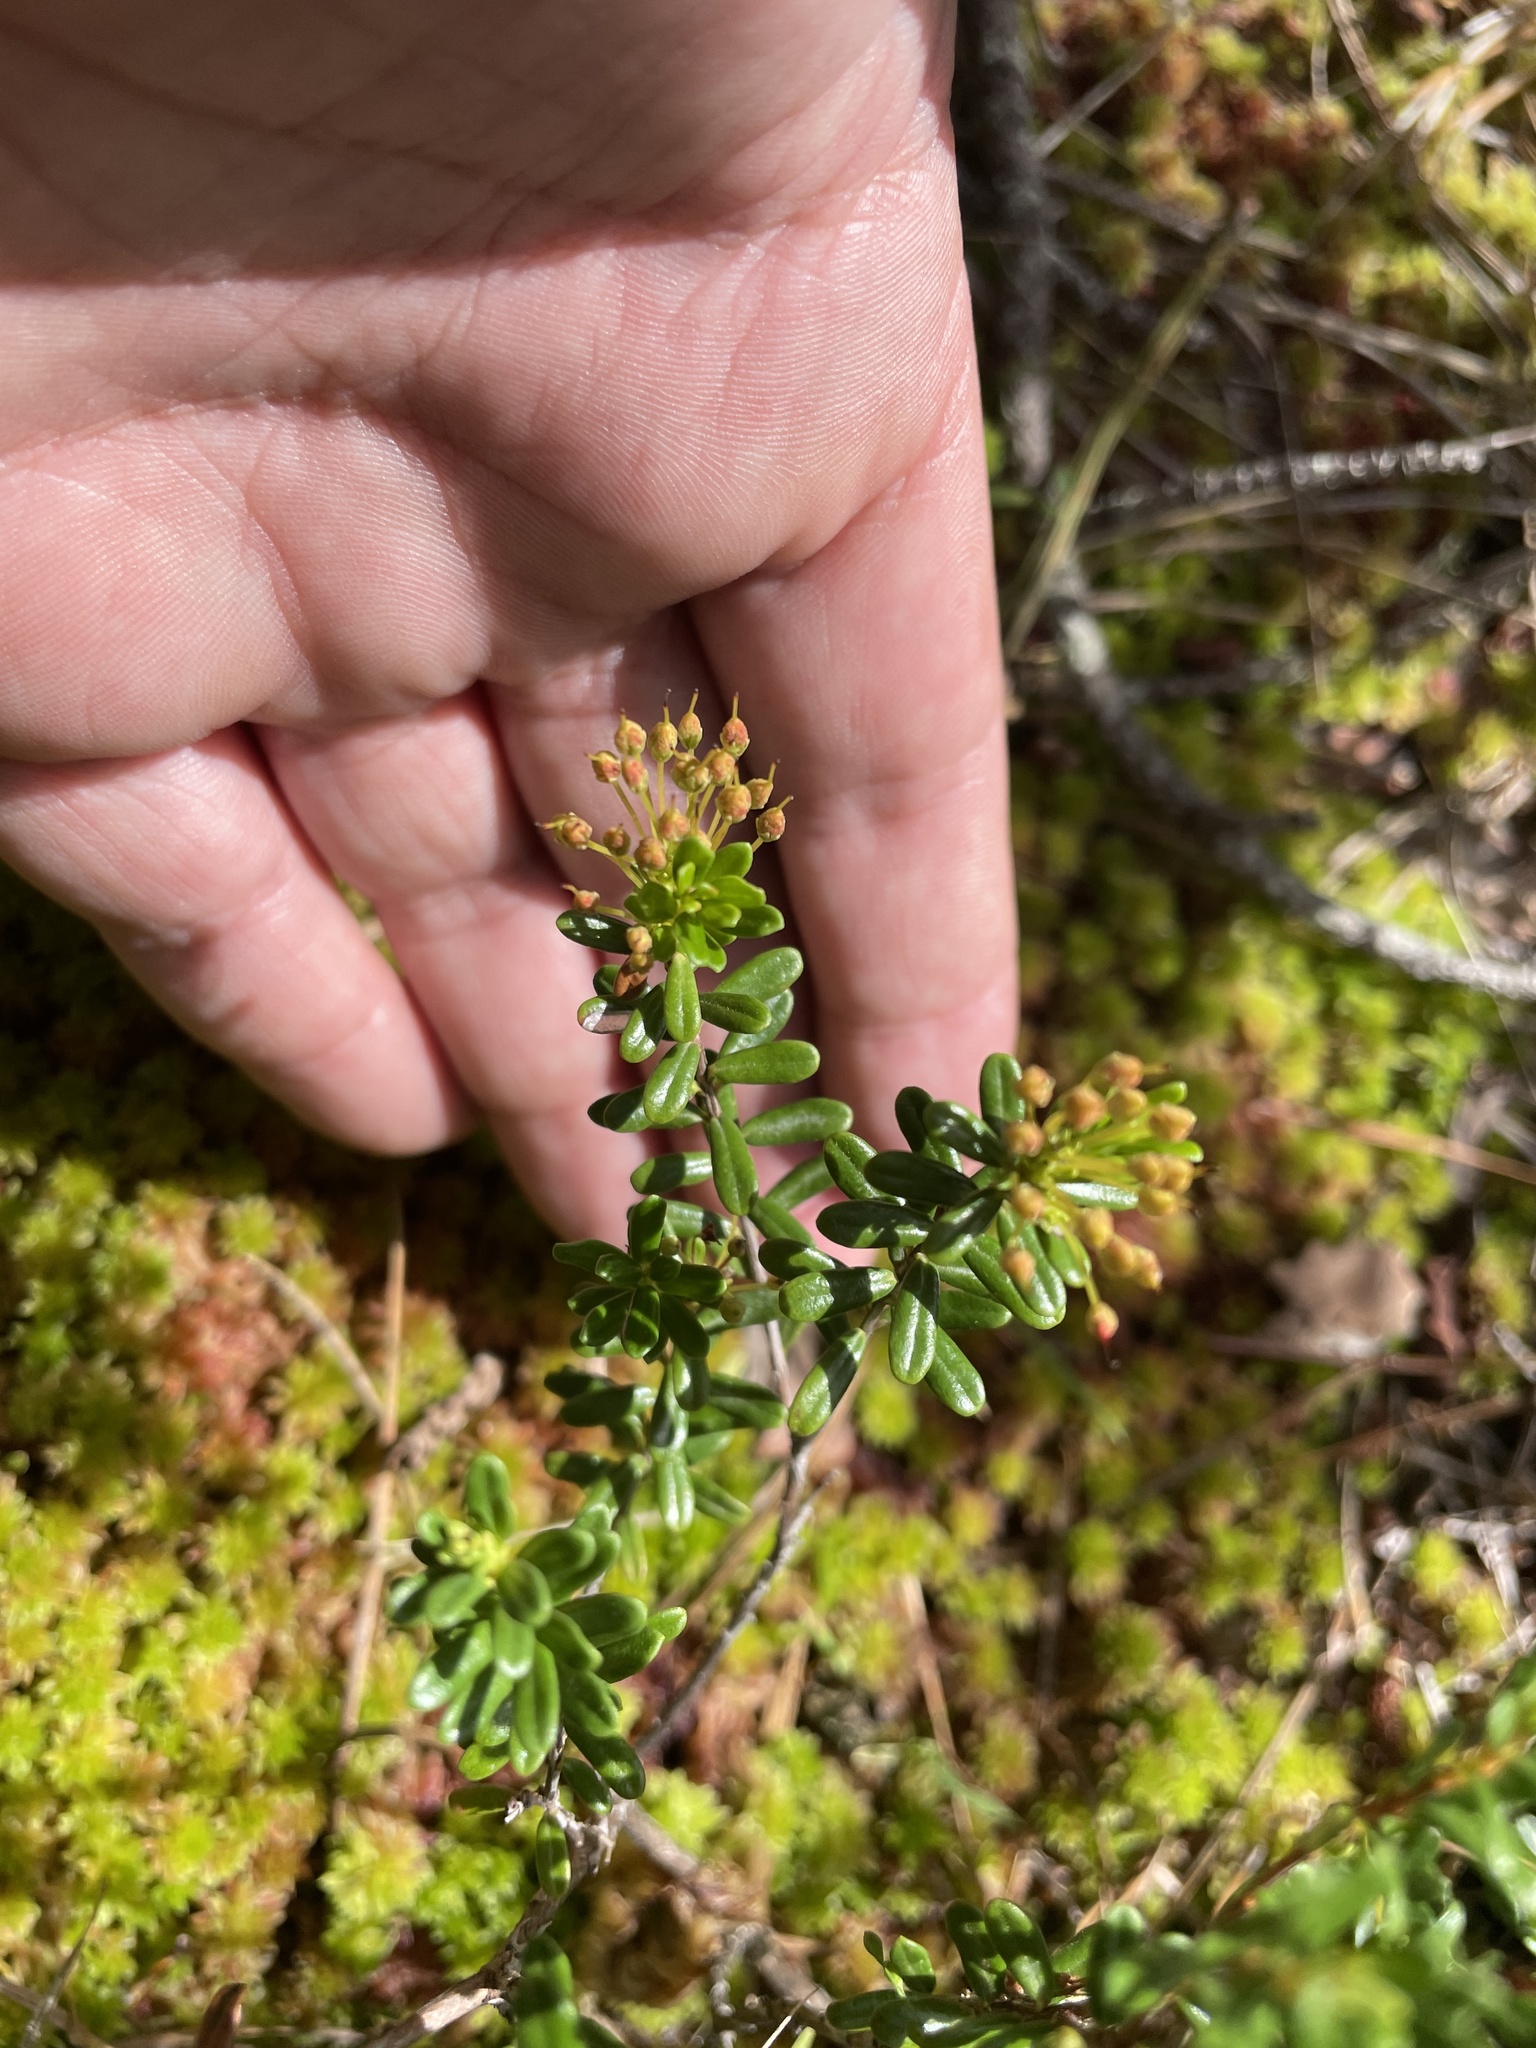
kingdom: Plantae
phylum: Tracheophyta
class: Magnoliopsida
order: Ericales
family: Ericaceae
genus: Kalmia
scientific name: Kalmia buxifolia
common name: Sandmyrtle
